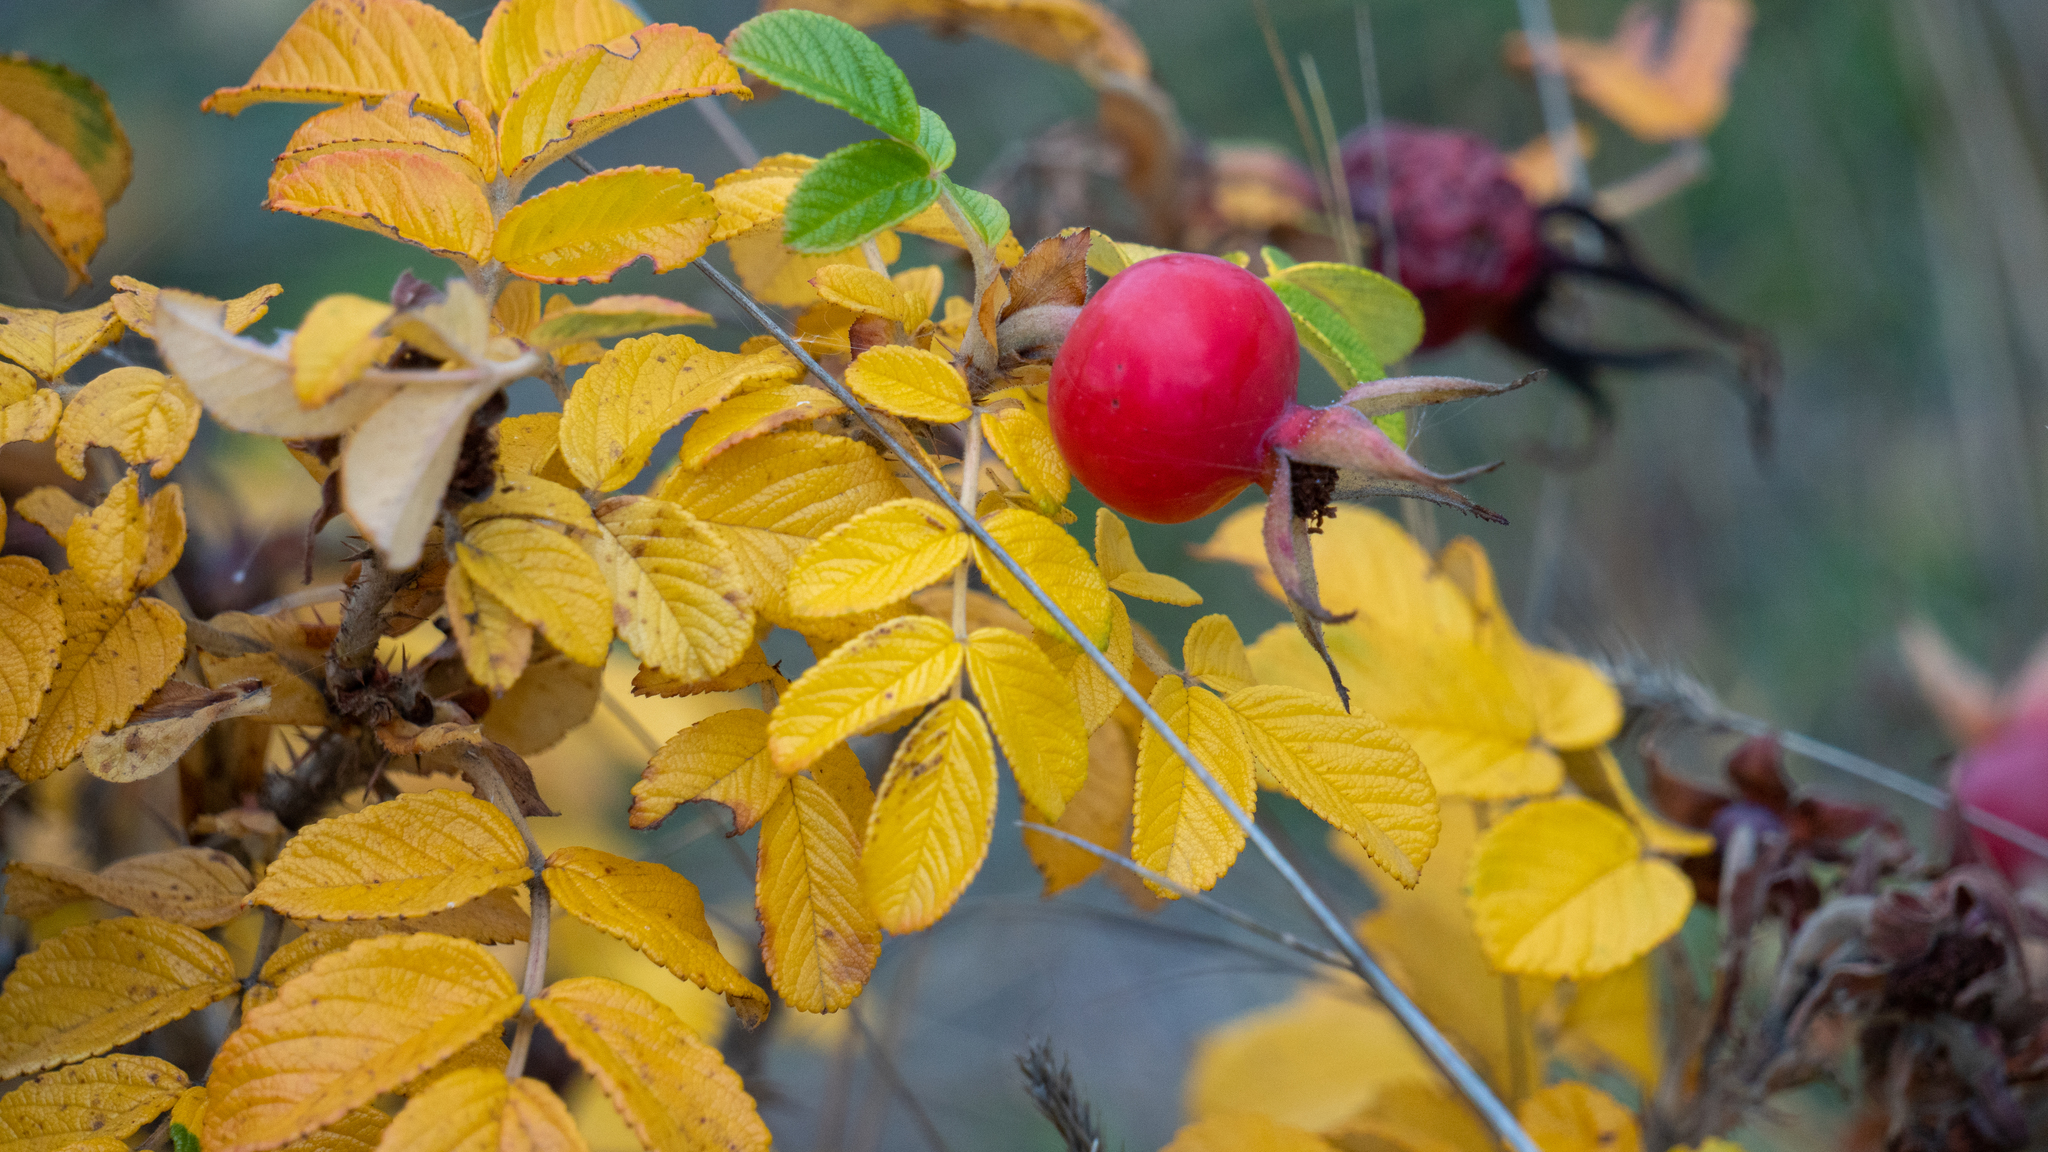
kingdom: Plantae
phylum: Tracheophyta
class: Magnoliopsida
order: Rosales
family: Rosaceae
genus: Rosa
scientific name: Rosa rugosa
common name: Japanese rose
